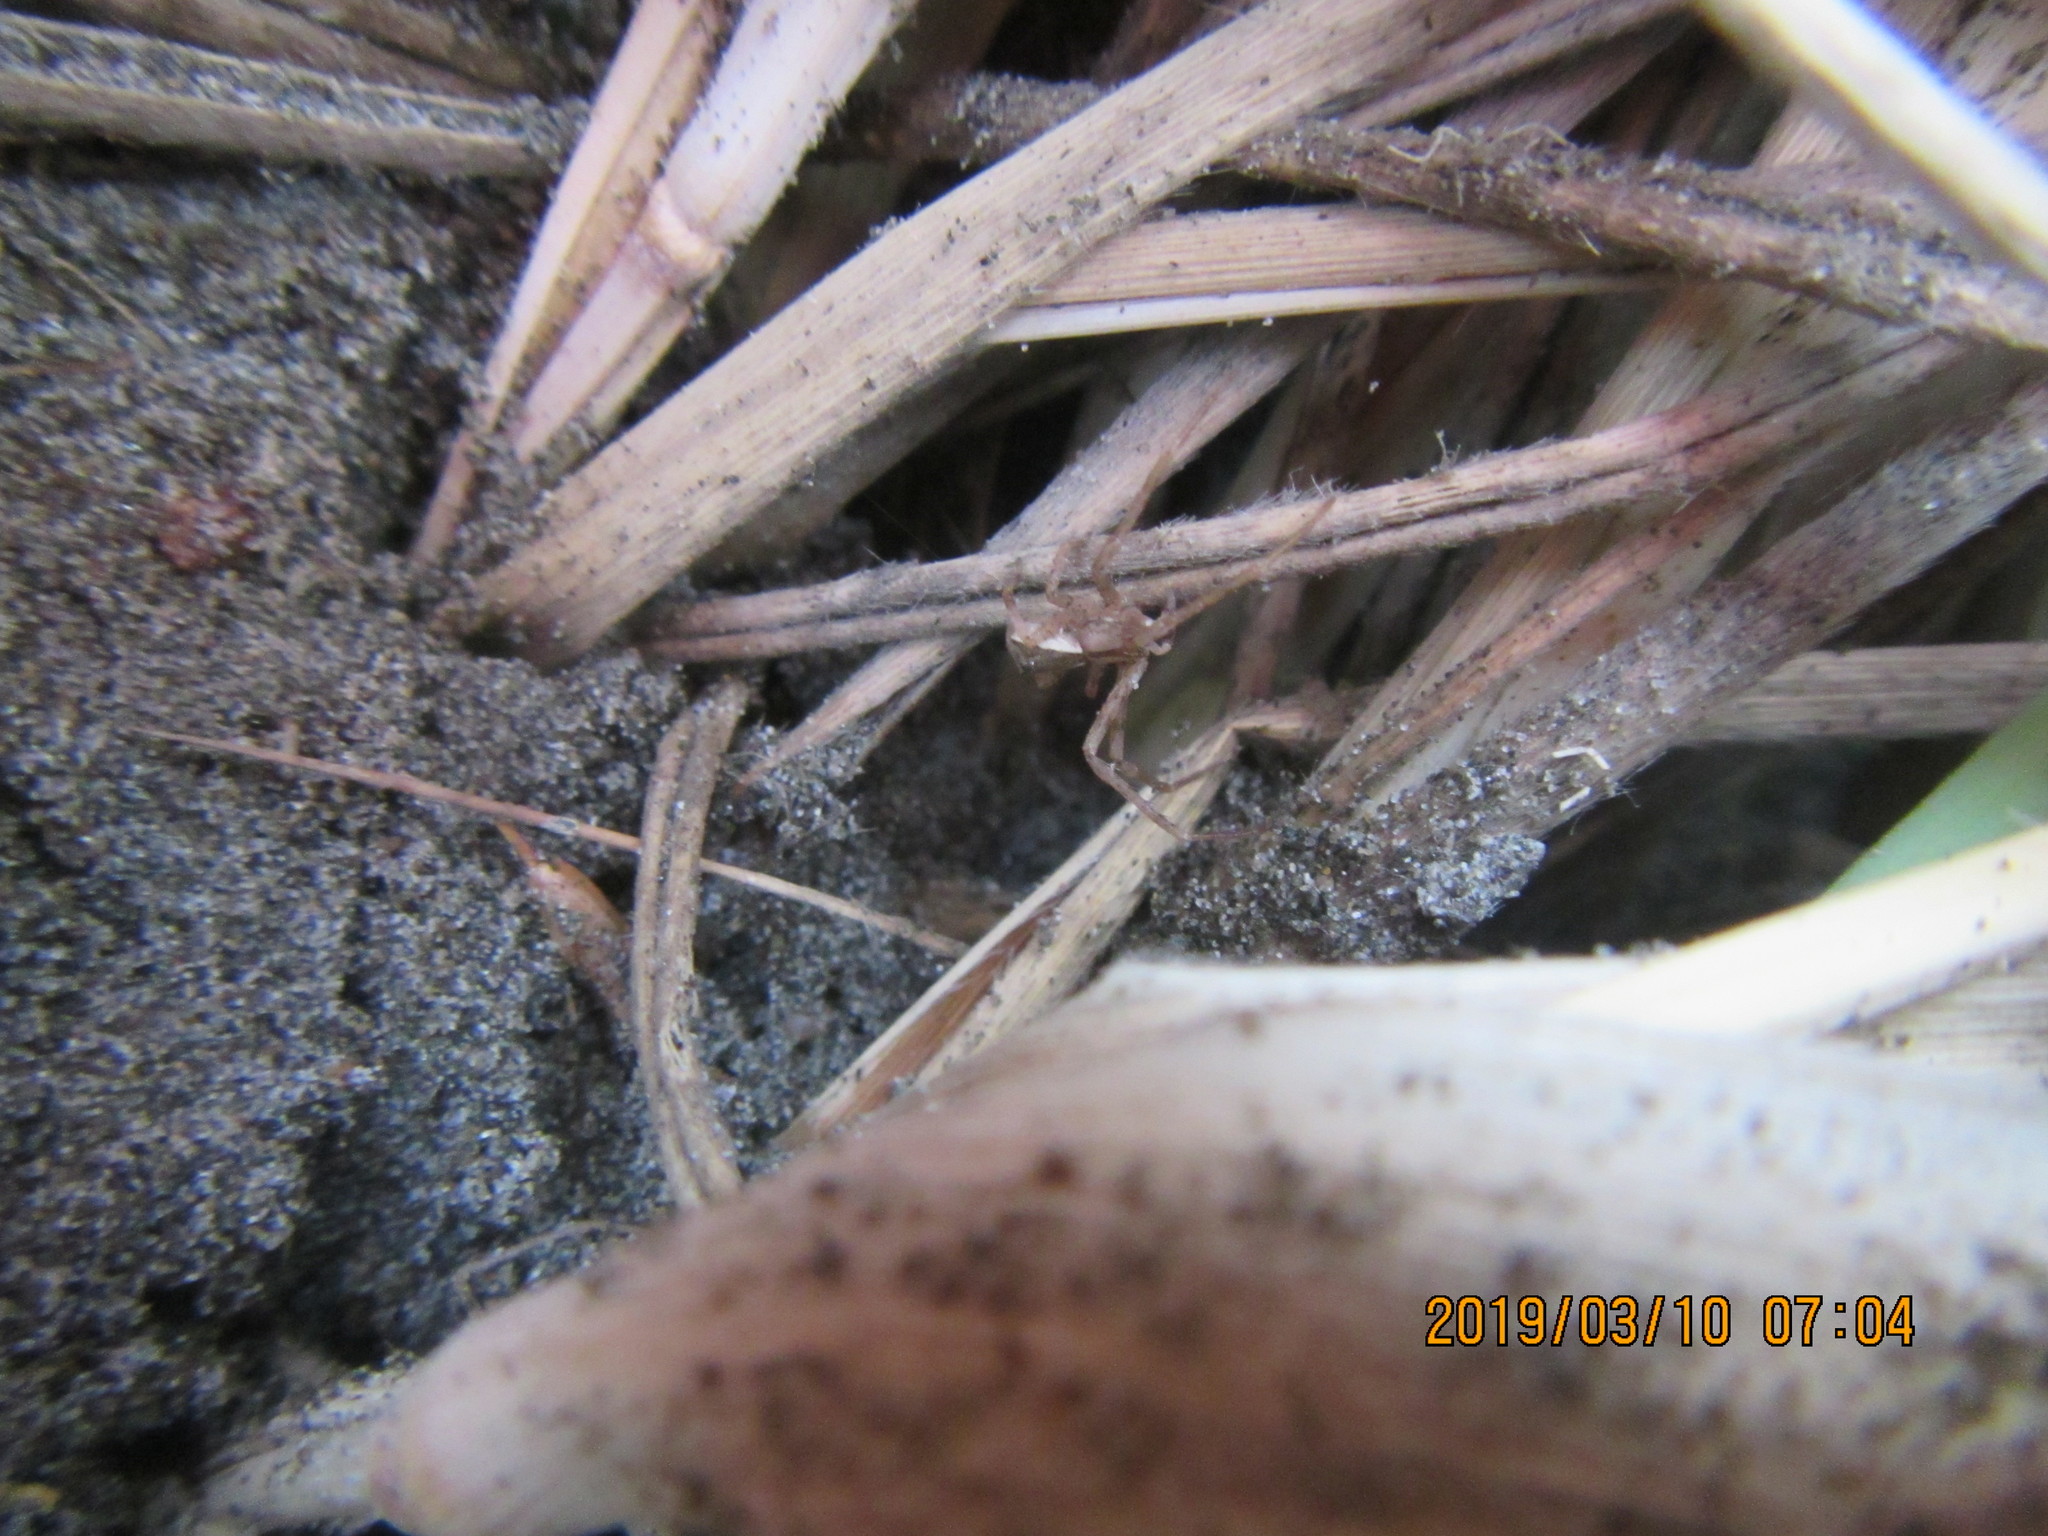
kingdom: Animalia
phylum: Arthropoda
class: Arachnida
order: Araneae
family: Thomisidae
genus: Sidymella
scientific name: Sidymella trapezia
